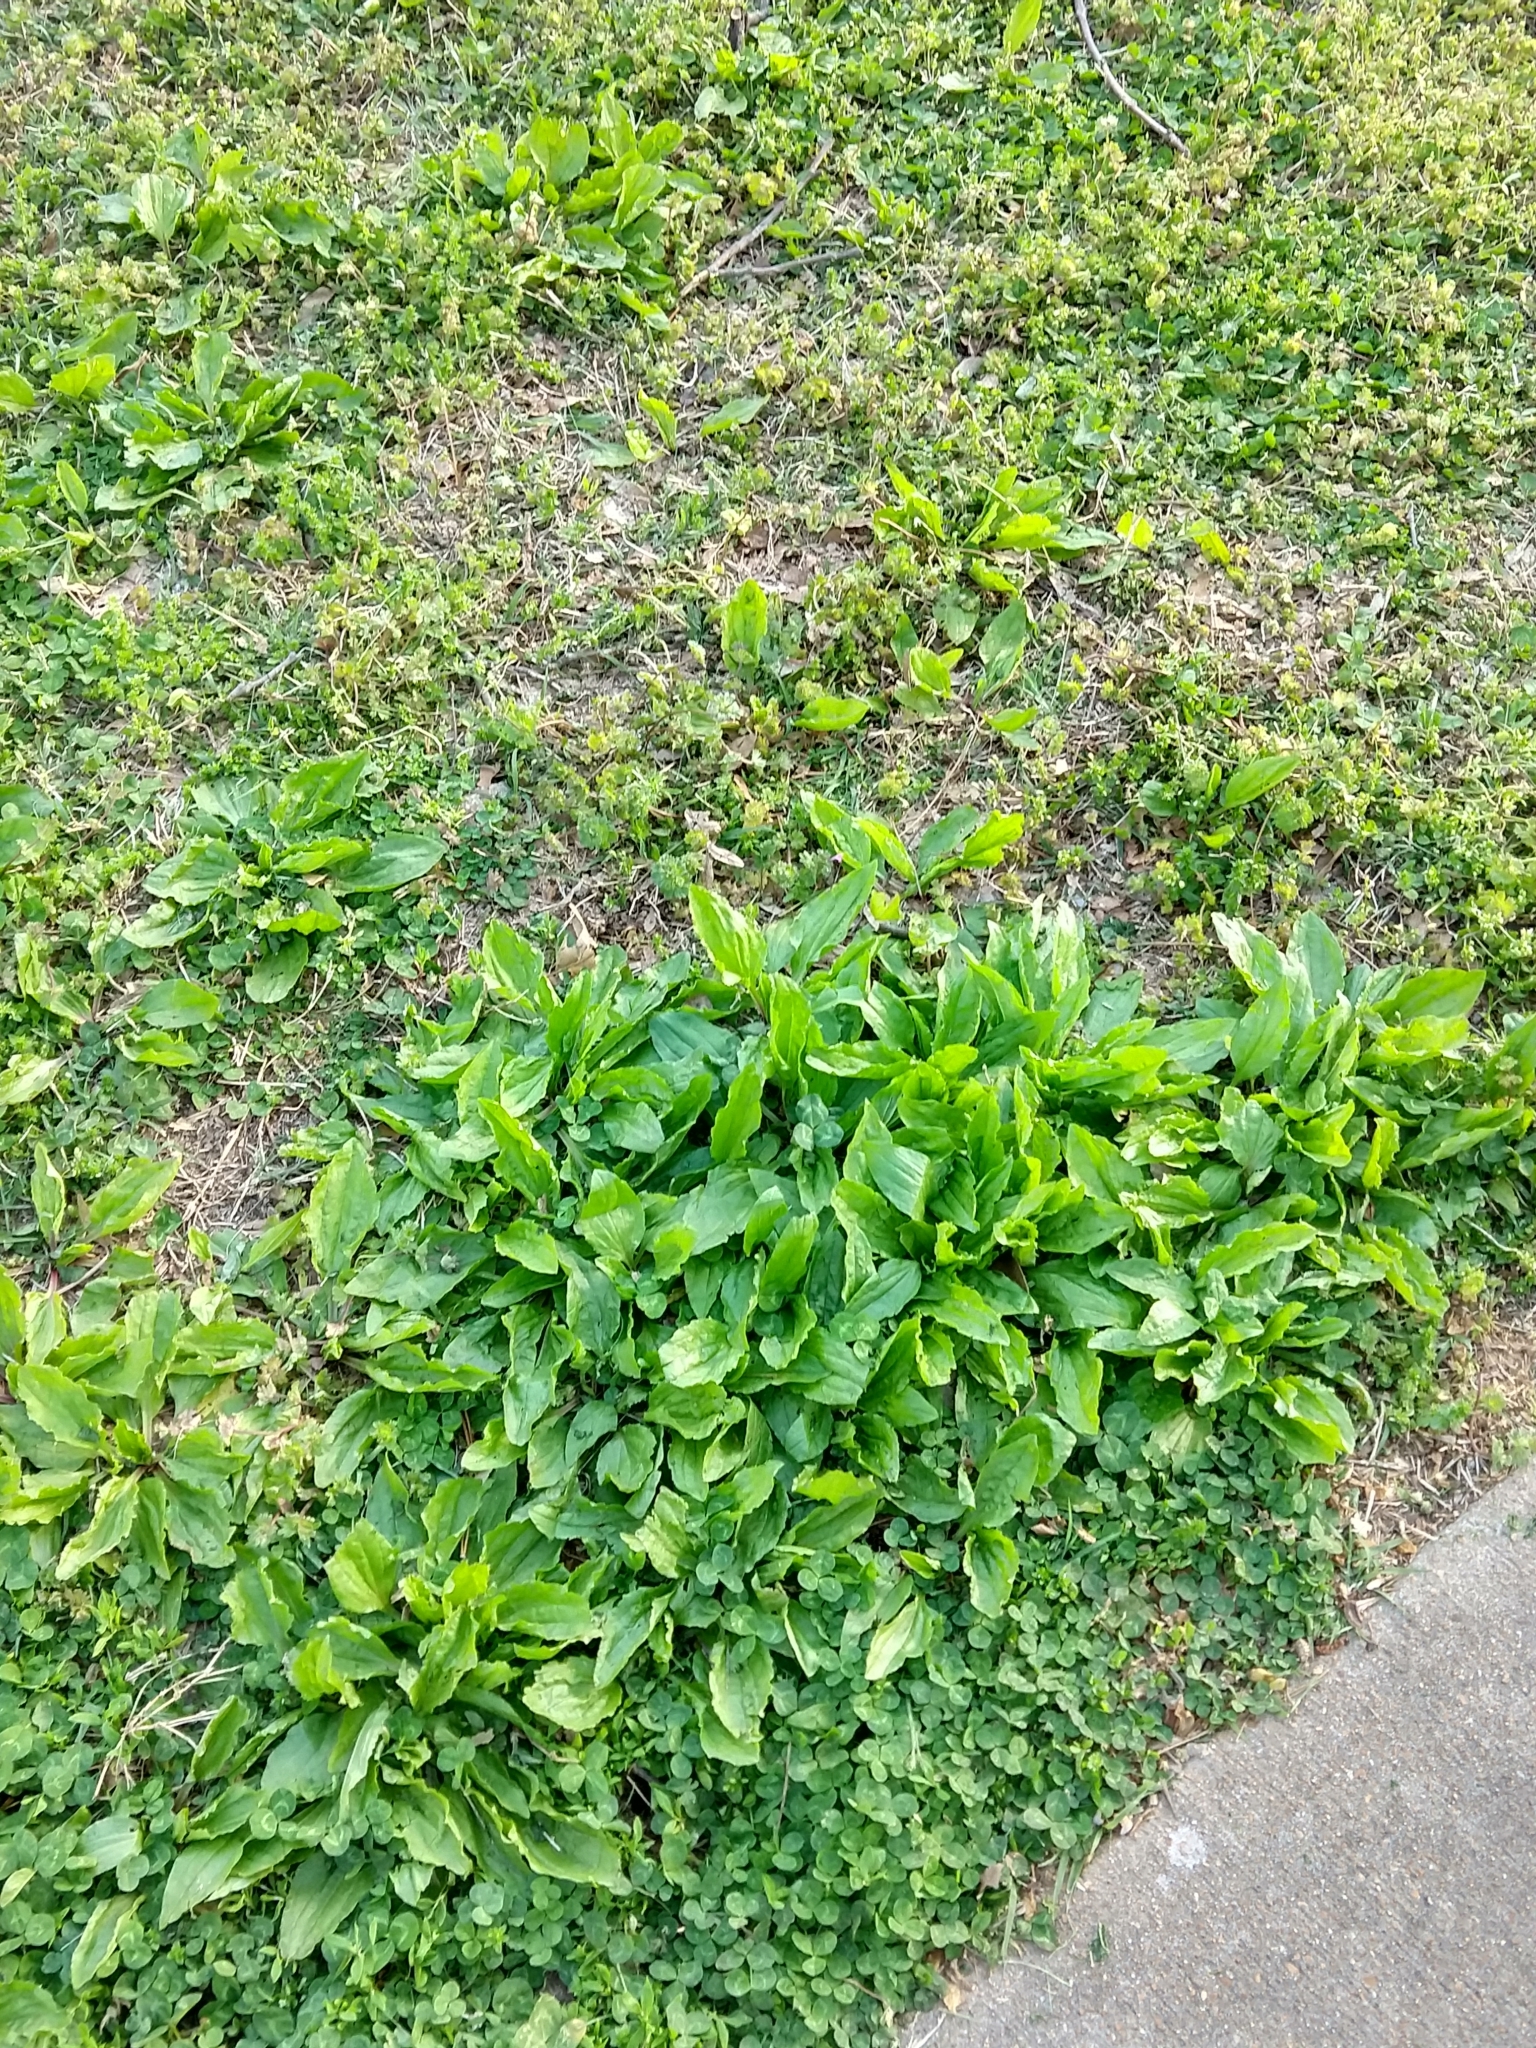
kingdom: Plantae
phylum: Tracheophyta
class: Magnoliopsida
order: Lamiales
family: Plantaginaceae
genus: Plantago
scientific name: Plantago rugelii
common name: American plantain
